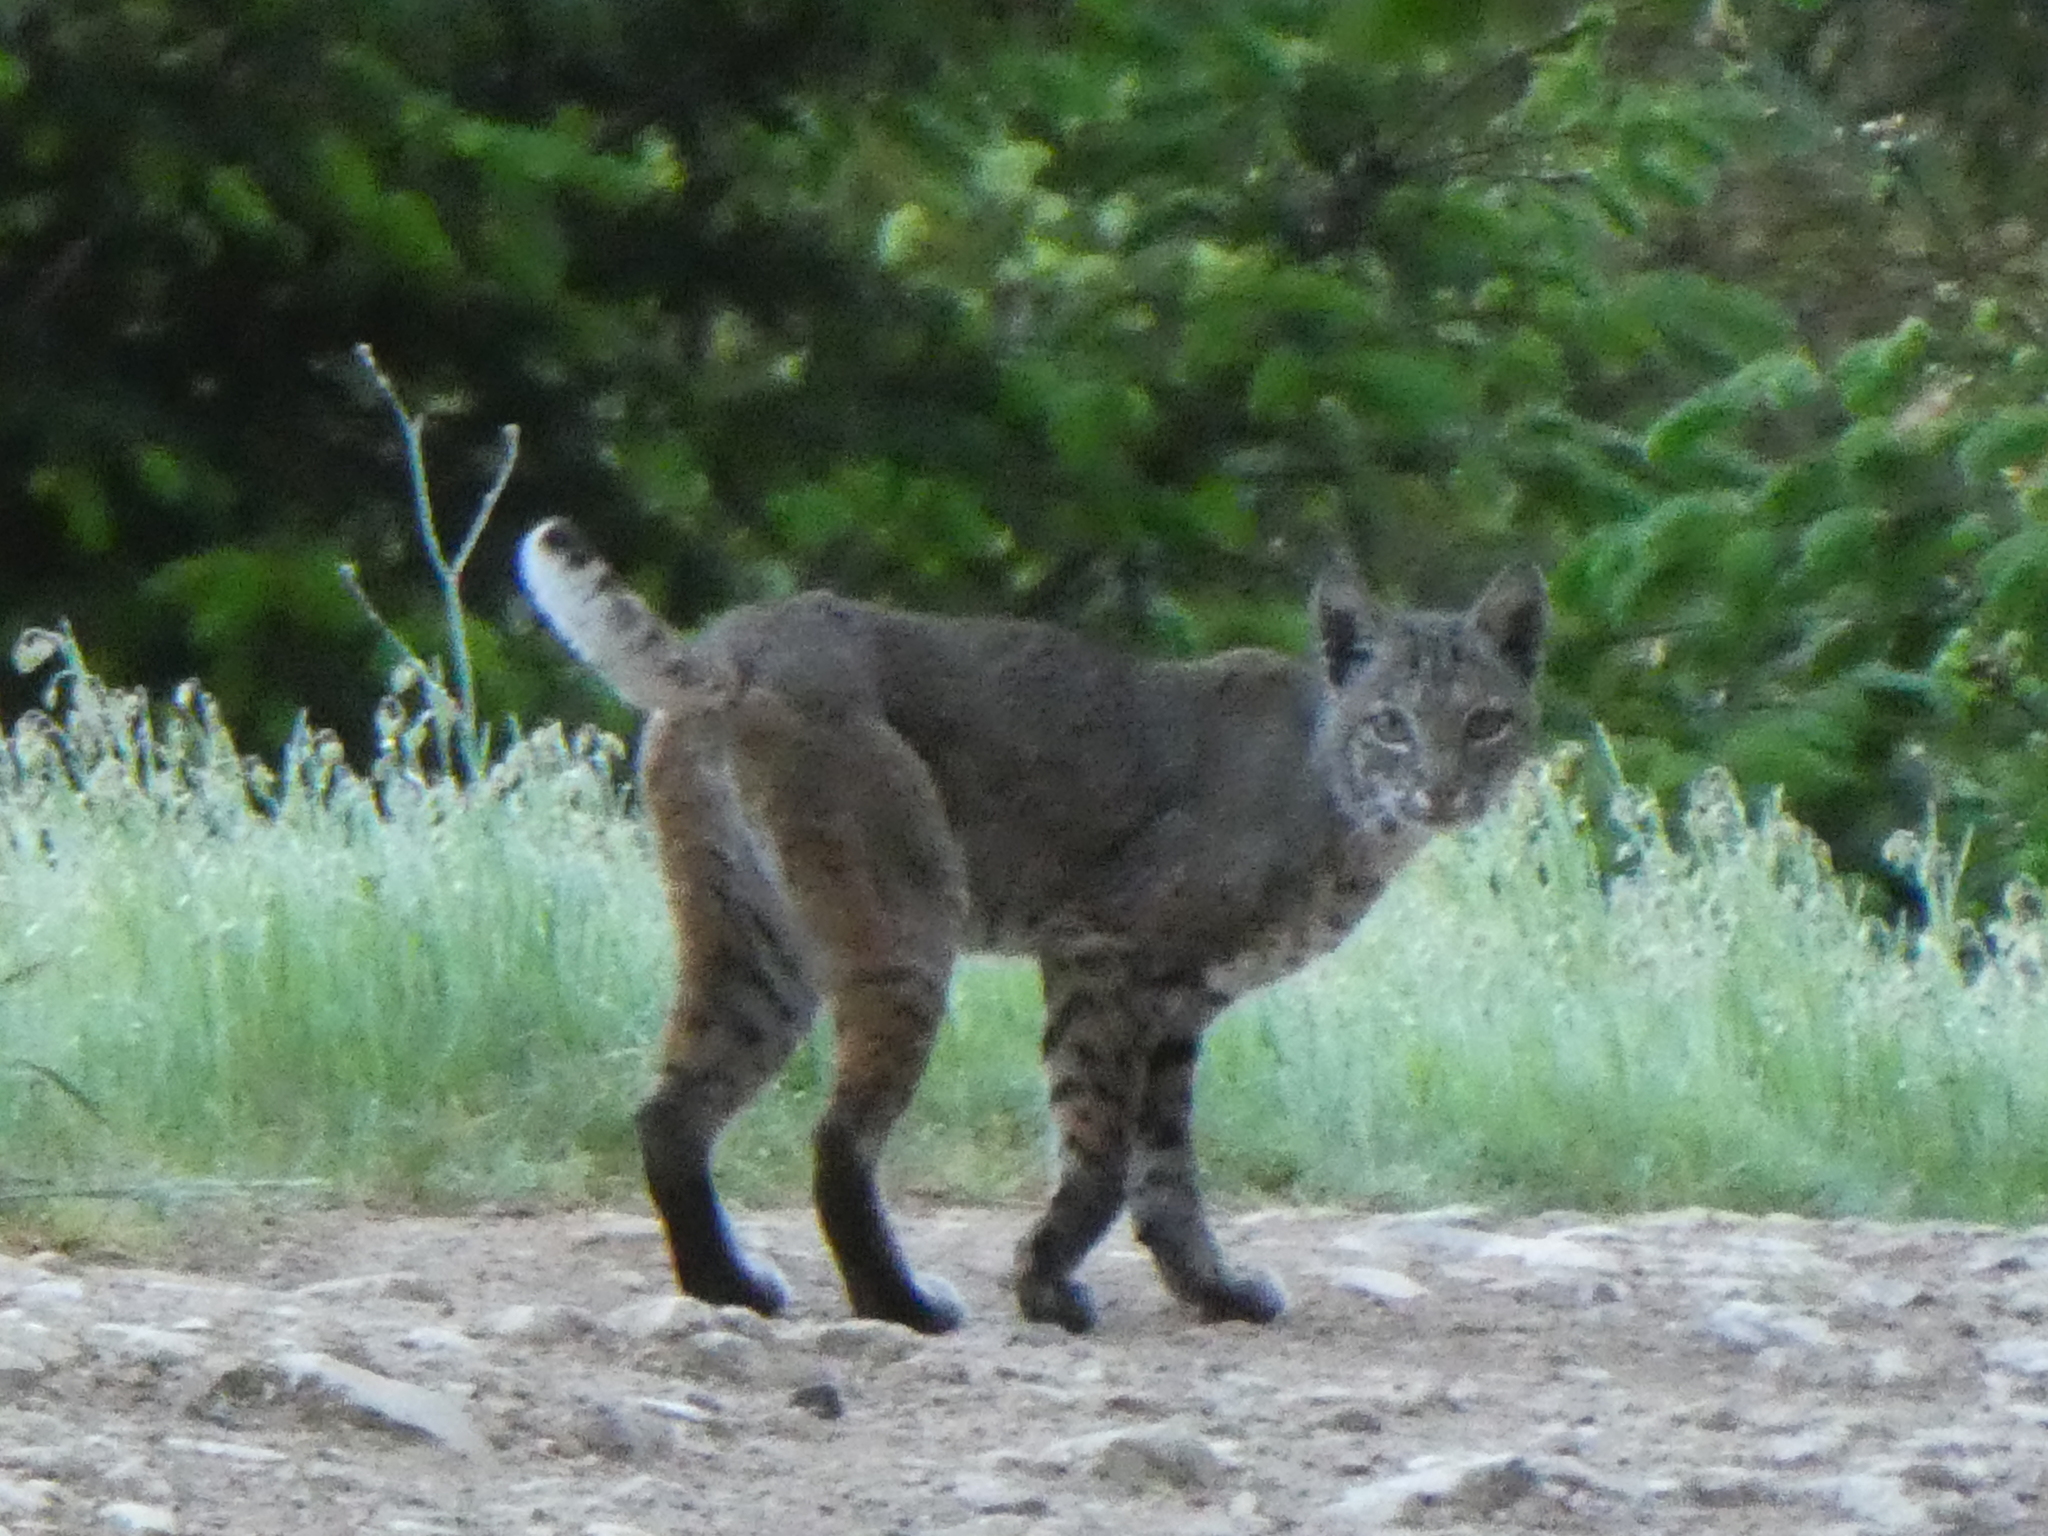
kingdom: Animalia
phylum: Chordata
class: Mammalia
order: Carnivora
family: Felidae
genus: Lynx
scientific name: Lynx rufus
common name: Bobcat
